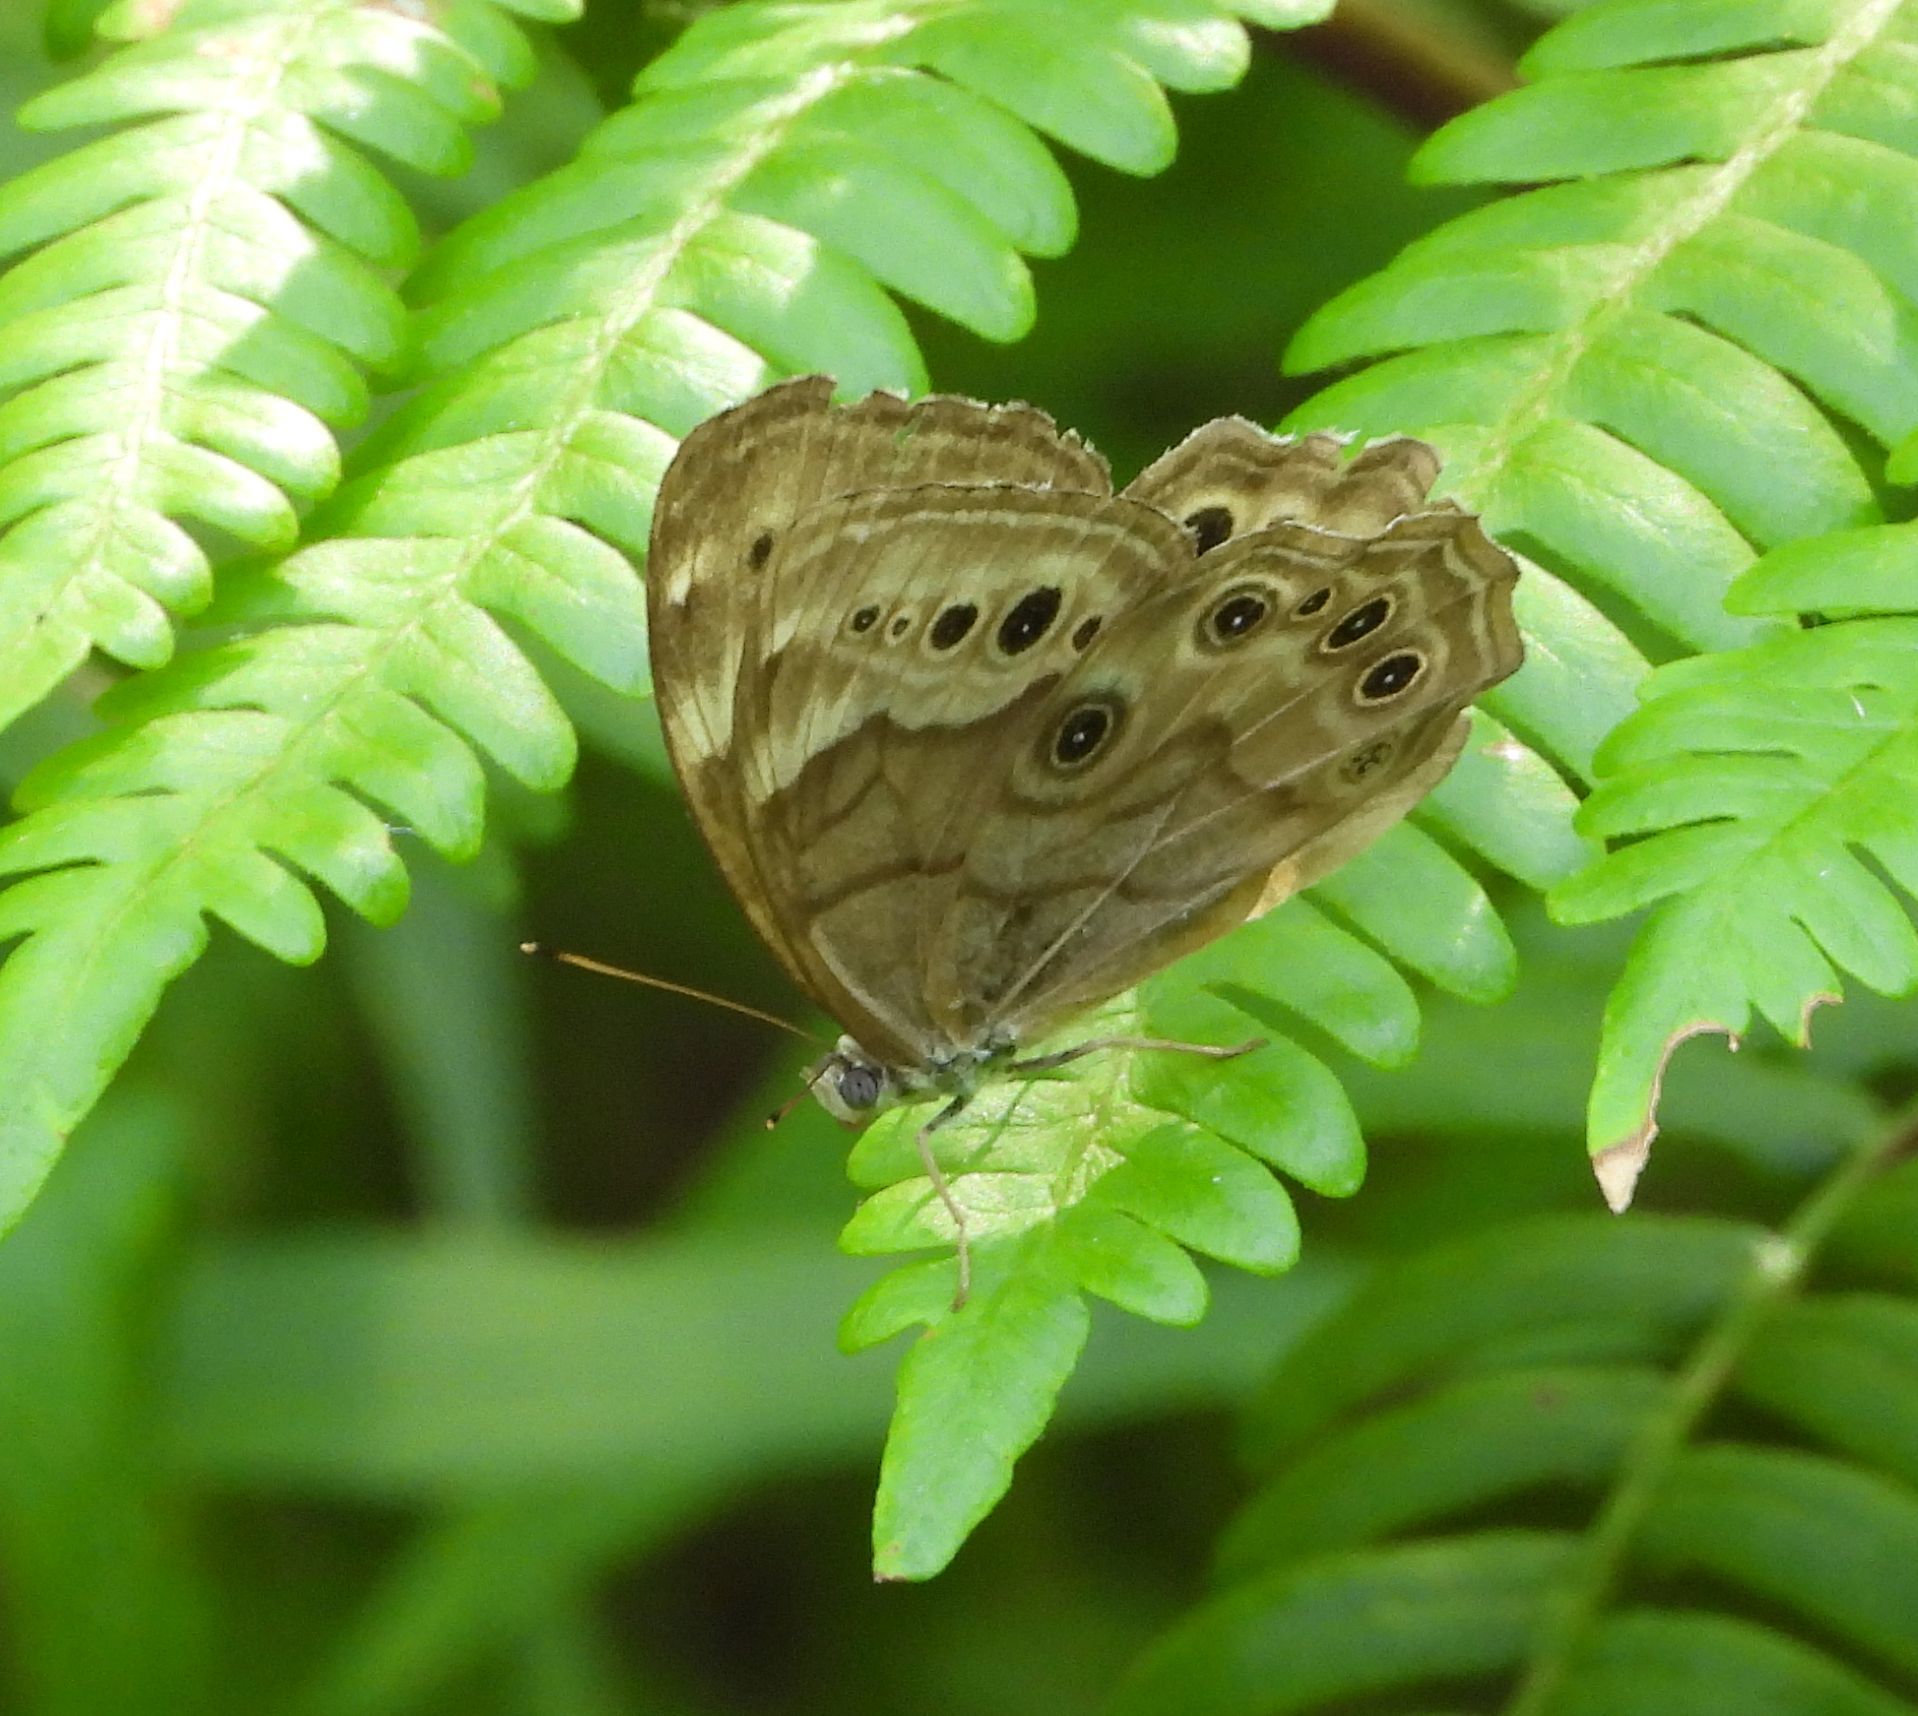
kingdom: Animalia
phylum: Arthropoda
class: Insecta
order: Lepidoptera
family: Nymphalidae
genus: Lethe
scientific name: Lethe anthedon
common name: Northern pearly-eye
